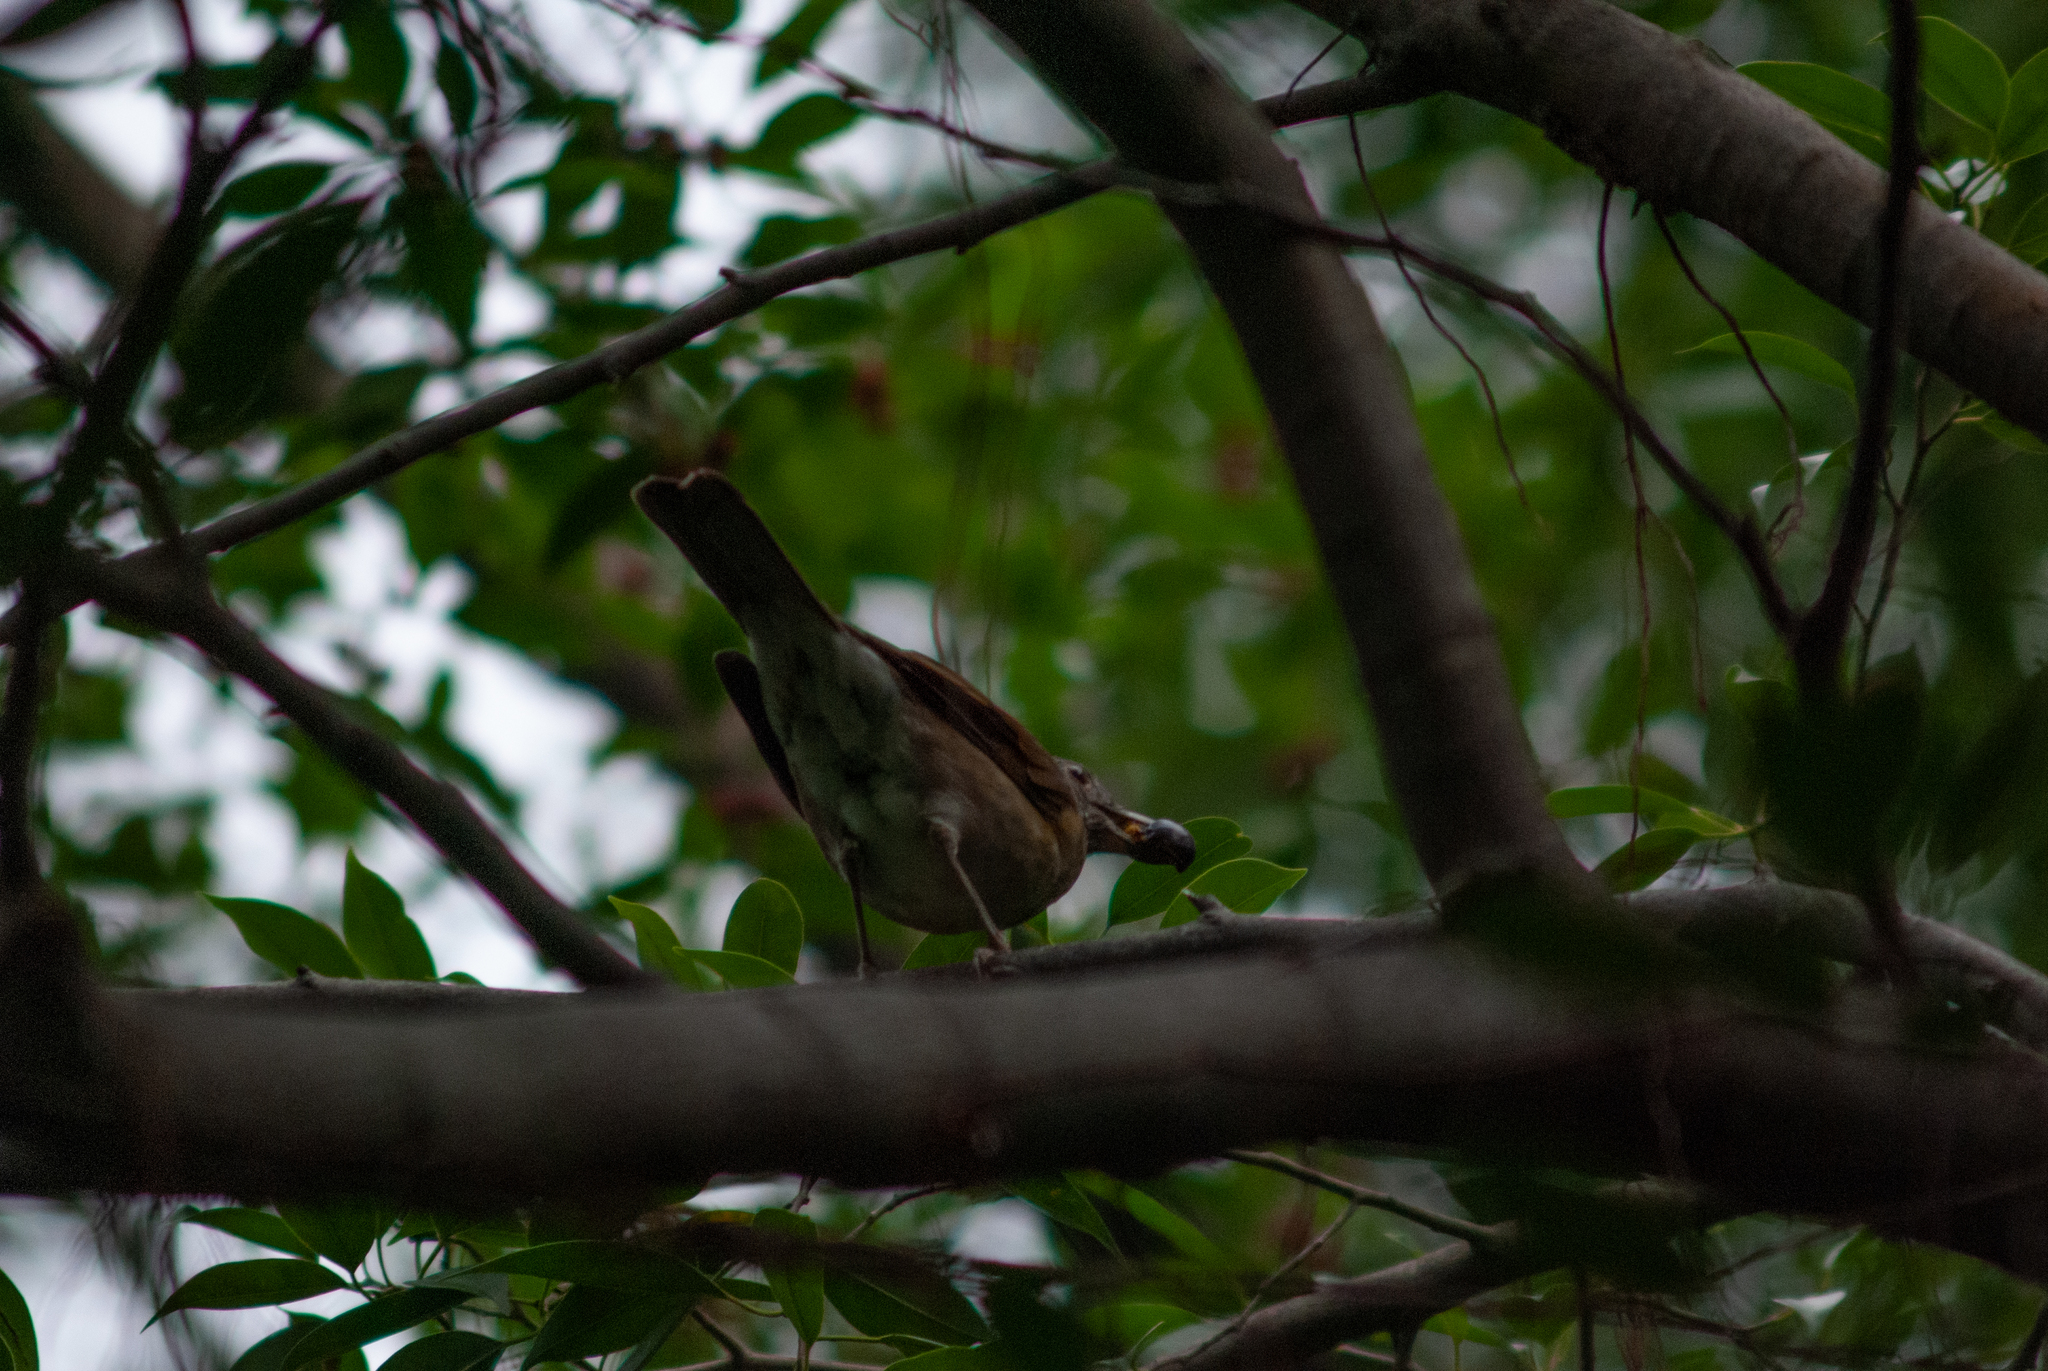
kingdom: Animalia
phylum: Chordata
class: Aves
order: Passeriformes
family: Turdidae
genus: Turdus
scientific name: Turdus leucomelas
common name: Pale-breasted thrush
